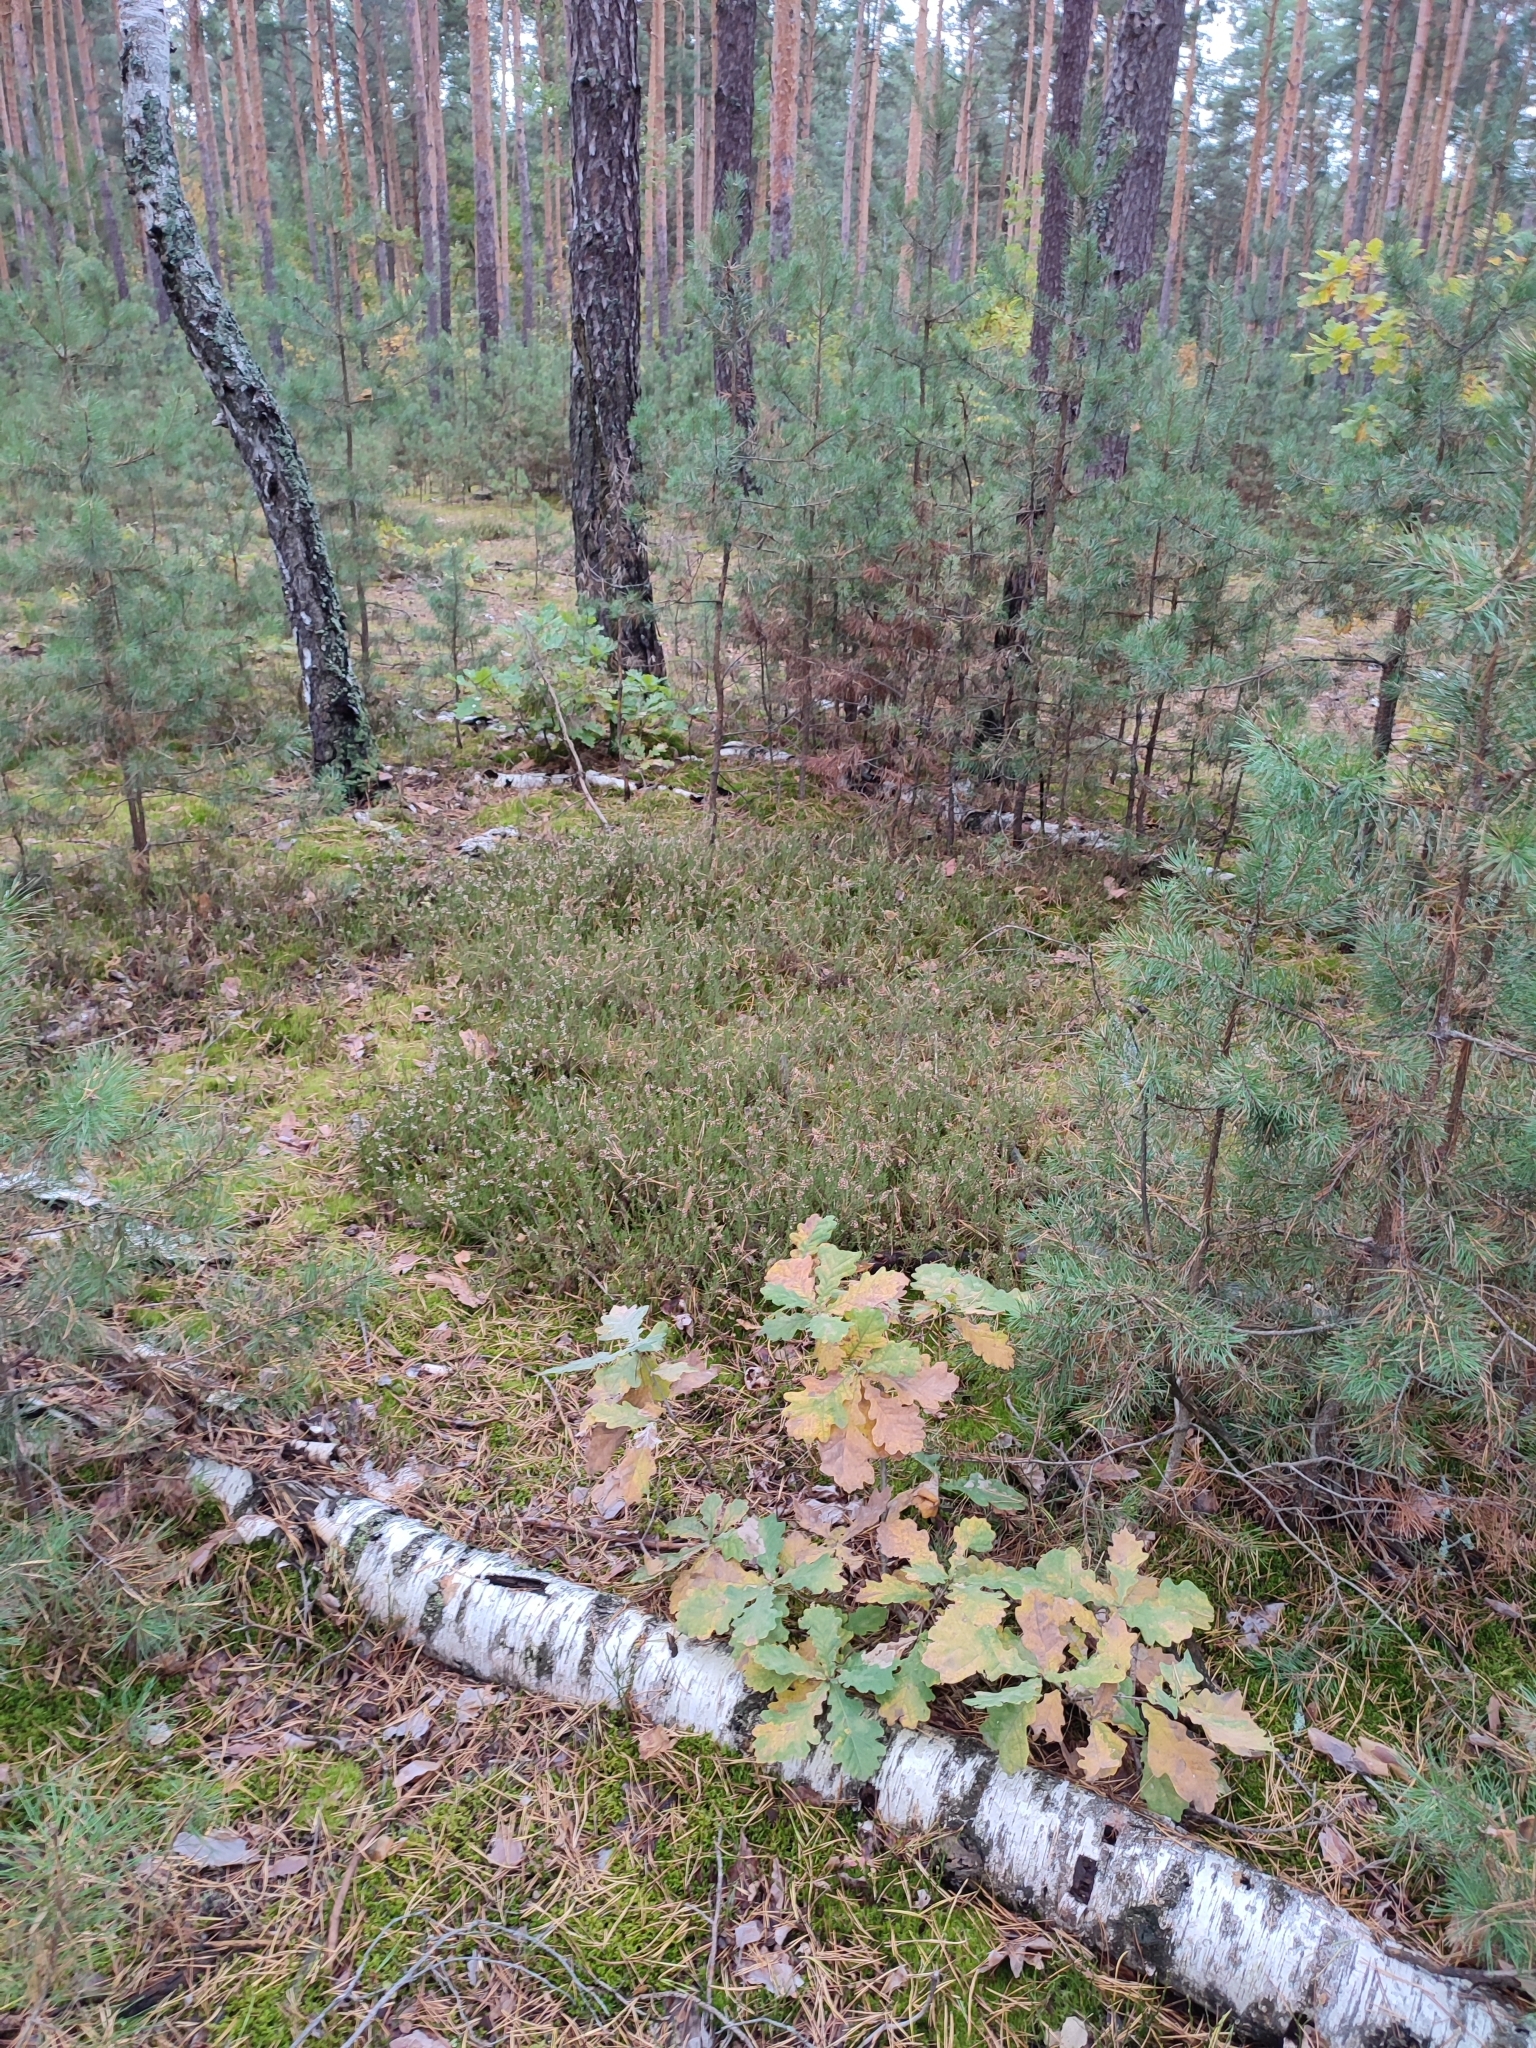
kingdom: Plantae
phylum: Tracheophyta
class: Magnoliopsida
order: Fagales
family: Fagaceae
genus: Quercus
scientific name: Quercus robur
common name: Pedunculate oak
